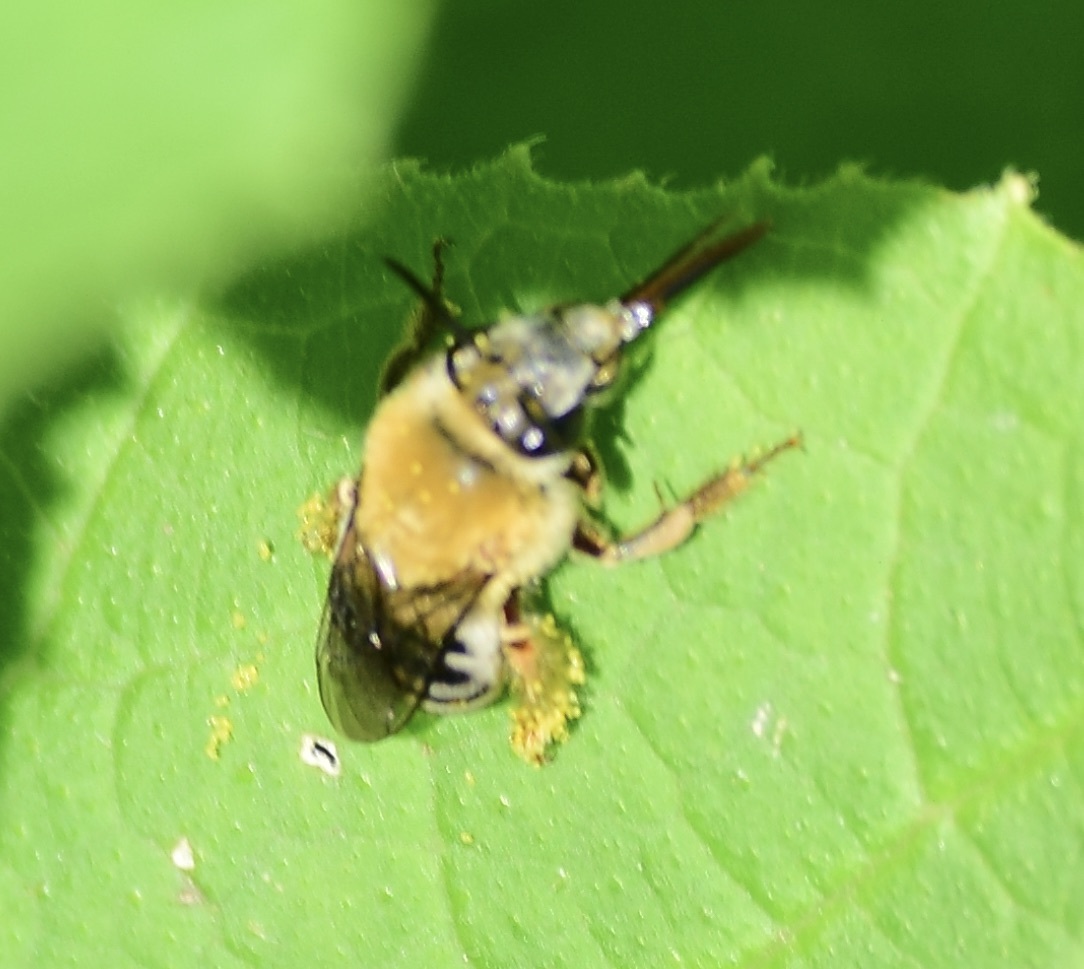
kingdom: Animalia
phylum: Arthropoda
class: Insecta
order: Hymenoptera
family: Apidae
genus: Peponapis
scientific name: Peponapis pruinosa
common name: Pruinose squash bee
